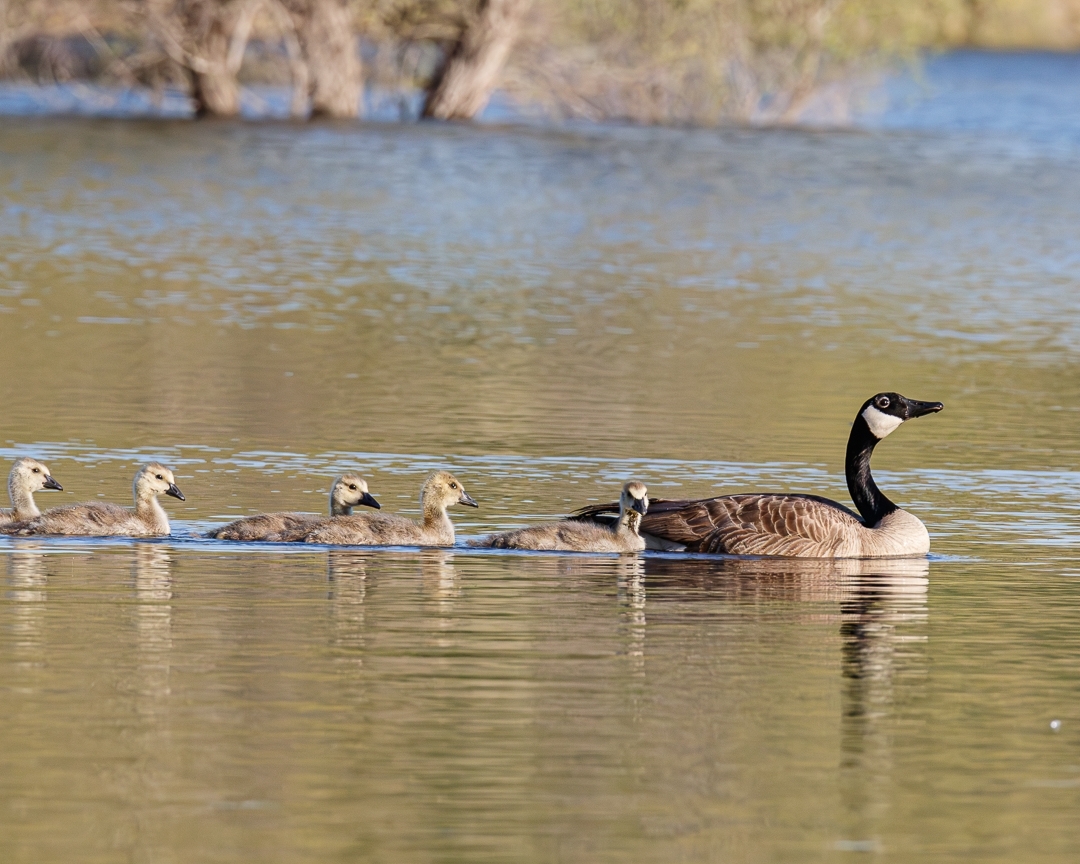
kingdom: Animalia
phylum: Chordata
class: Aves
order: Anseriformes
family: Anatidae
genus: Branta
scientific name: Branta canadensis
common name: Canada goose
